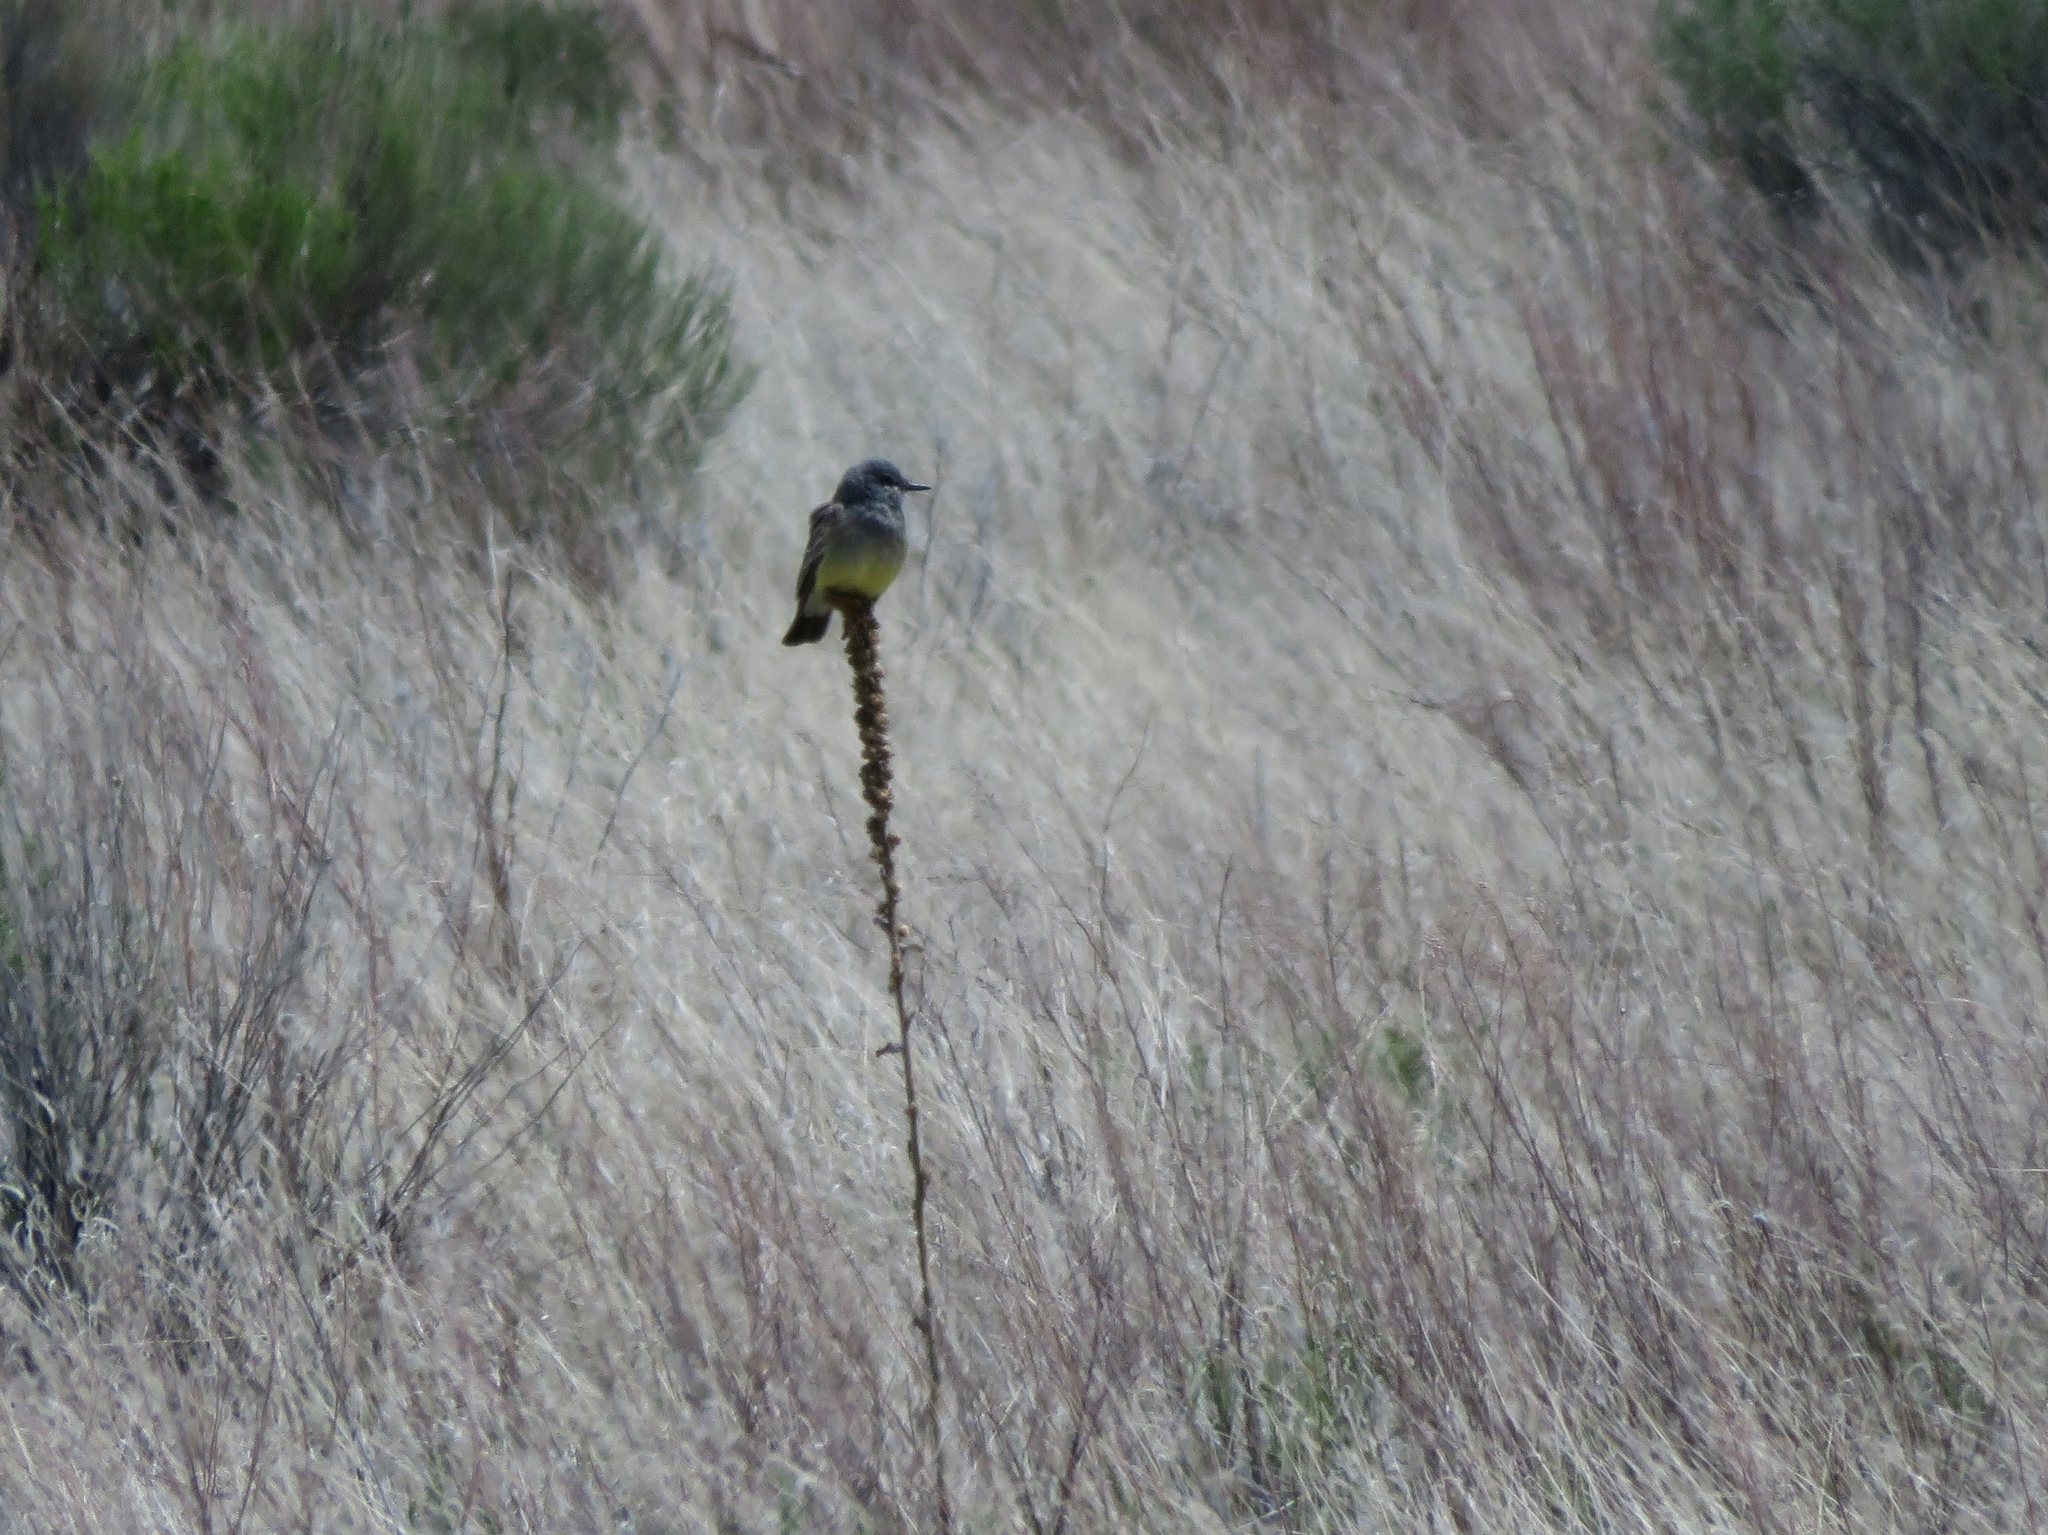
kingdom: Animalia
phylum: Chordata
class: Aves
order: Passeriformes
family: Tyrannidae
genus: Tyrannus
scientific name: Tyrannus vociferans
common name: Cassin's kingbird
